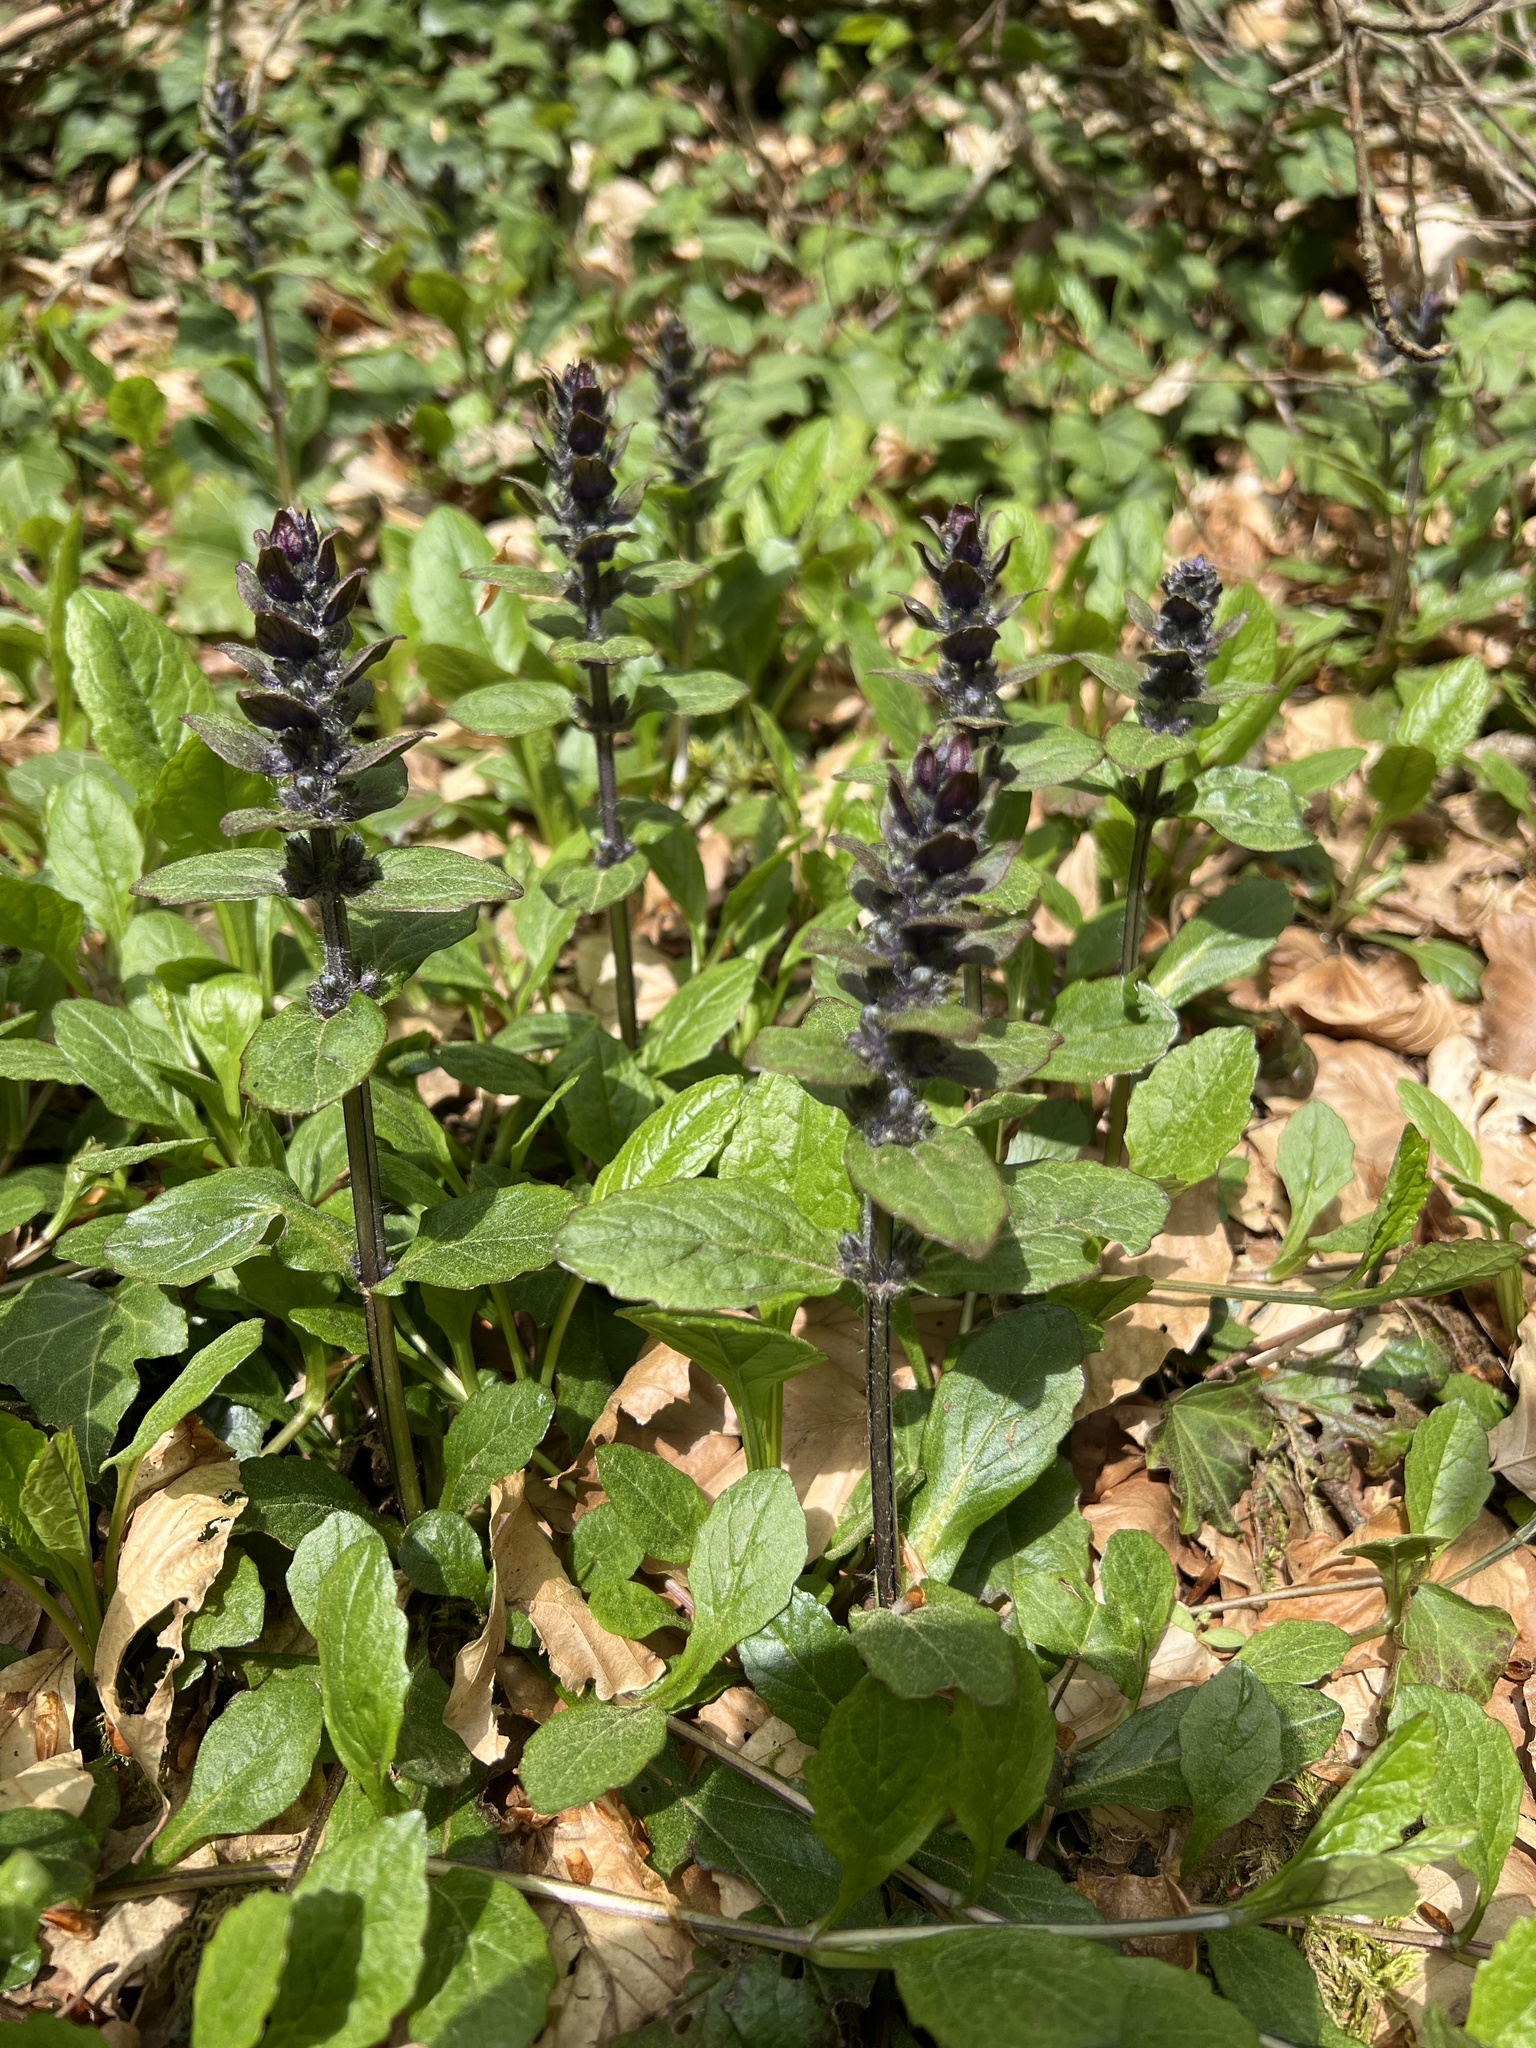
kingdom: Plantae
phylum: Tracheophyta
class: Magnoliopsida
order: Lamiales
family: Lamiaceae
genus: Ajuga
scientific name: Ajuga reptans
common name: Bugle
